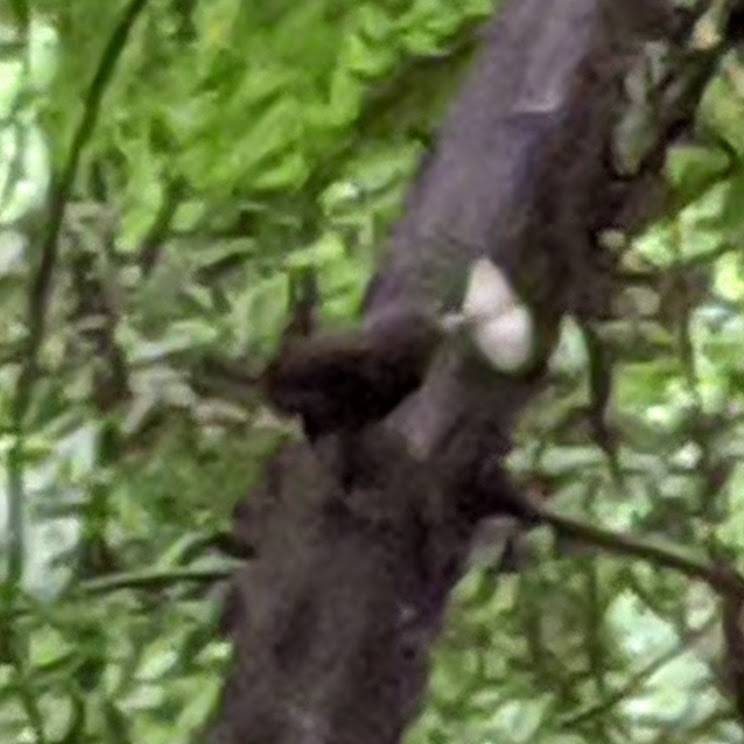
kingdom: Animalia
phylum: Chordata
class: Aves
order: Passeriformes
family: Troglodytidae
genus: Troglodytes
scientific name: Troglodytes pacificus
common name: Pacific wren
